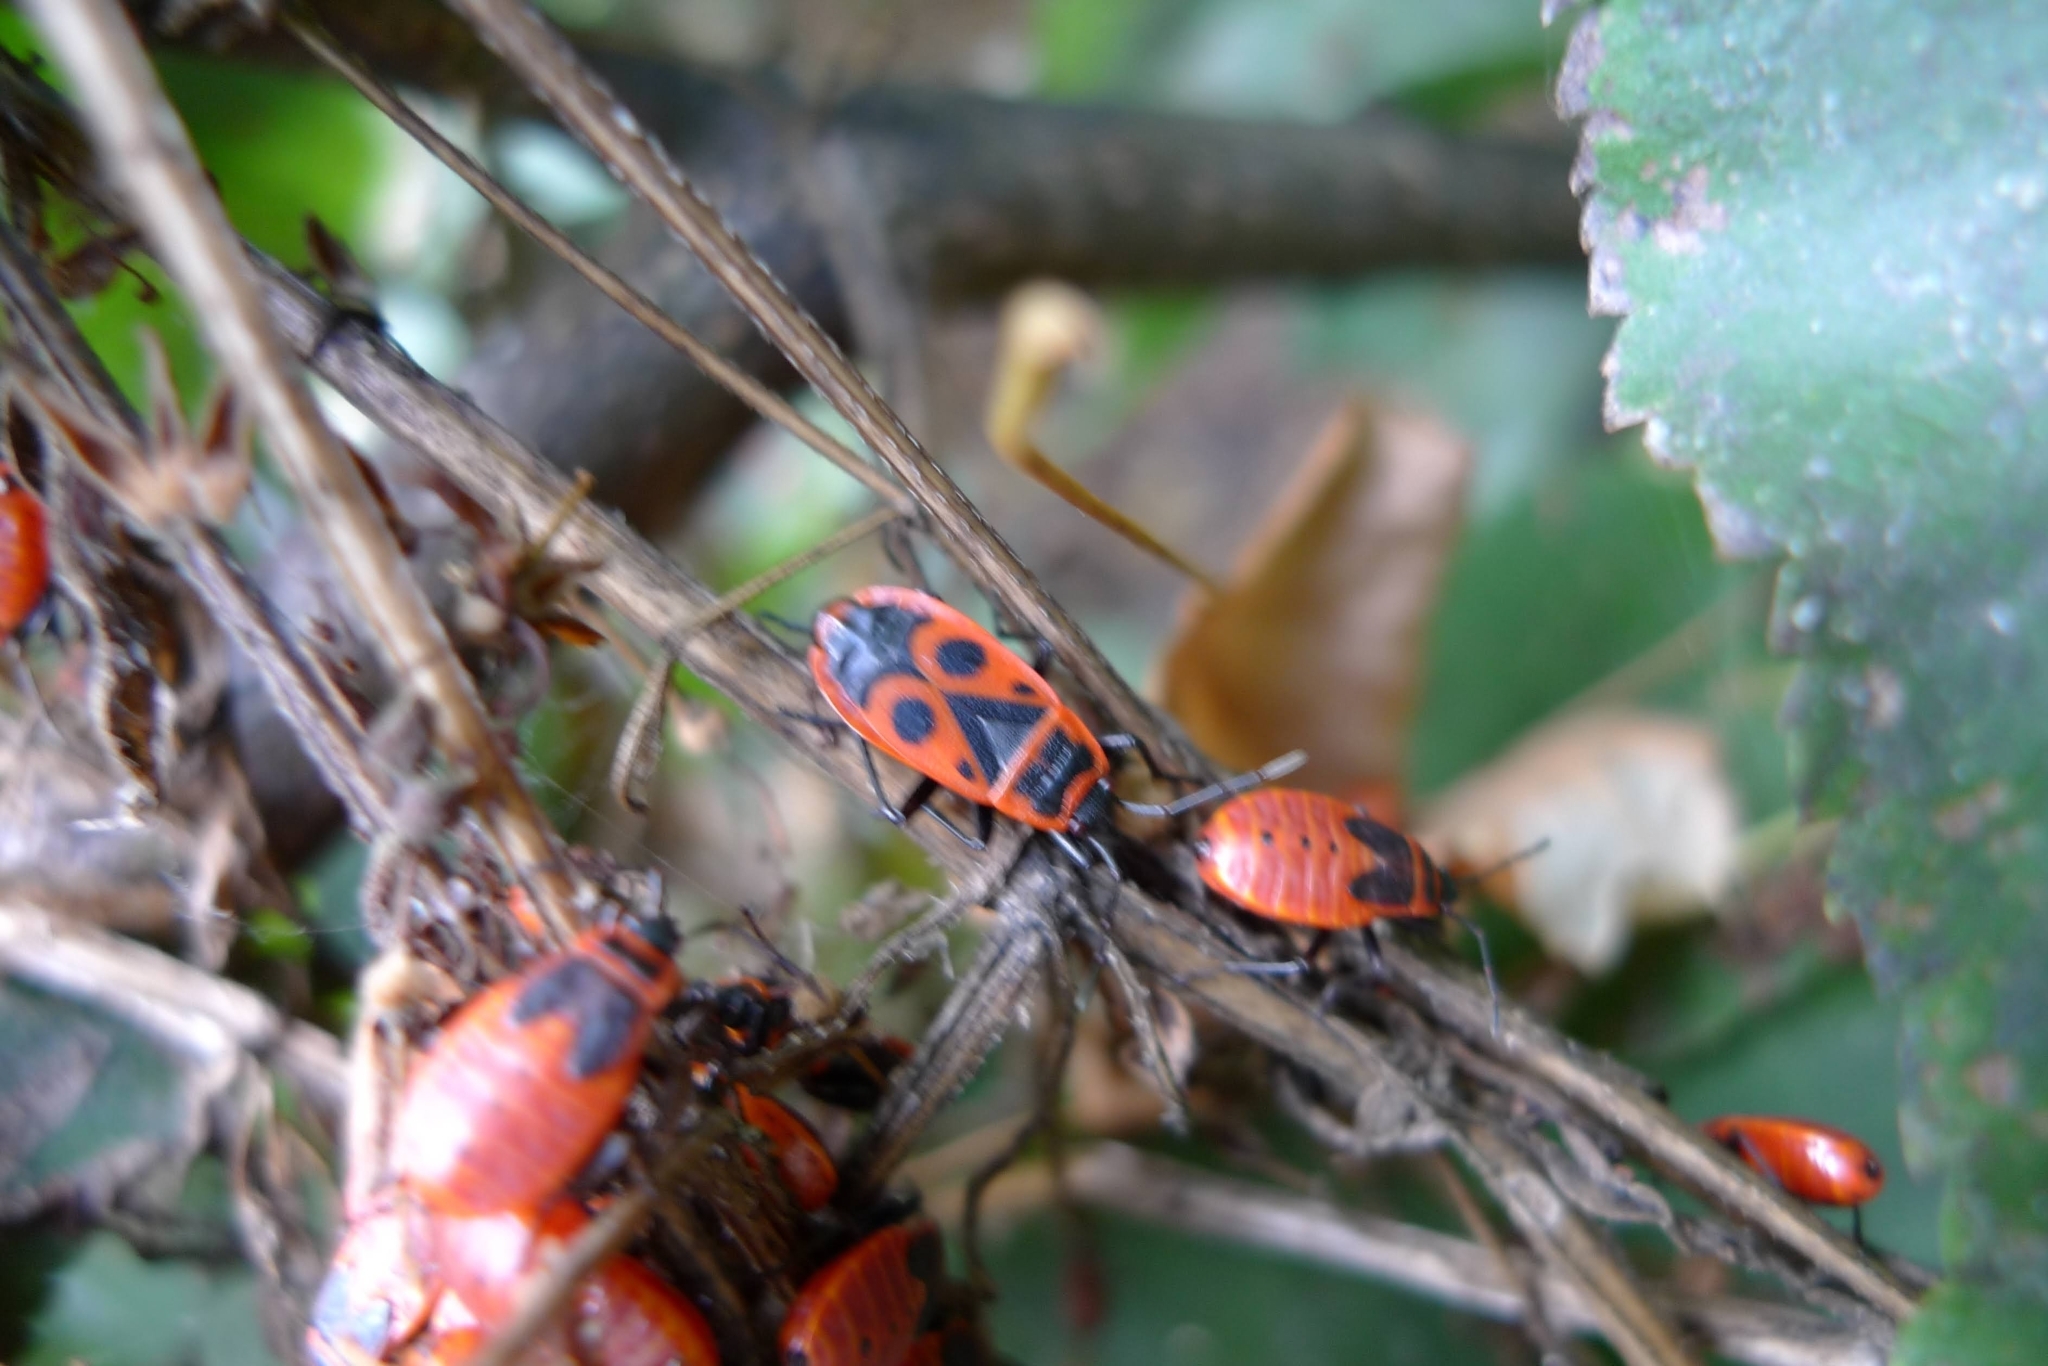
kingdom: Animalia
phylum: Arthropoda
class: Insecta
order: Hemiptera
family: Pyrrhocoridae
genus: Pyrrhocoris
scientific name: Pyrrhocoris apterus
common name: Firebug
